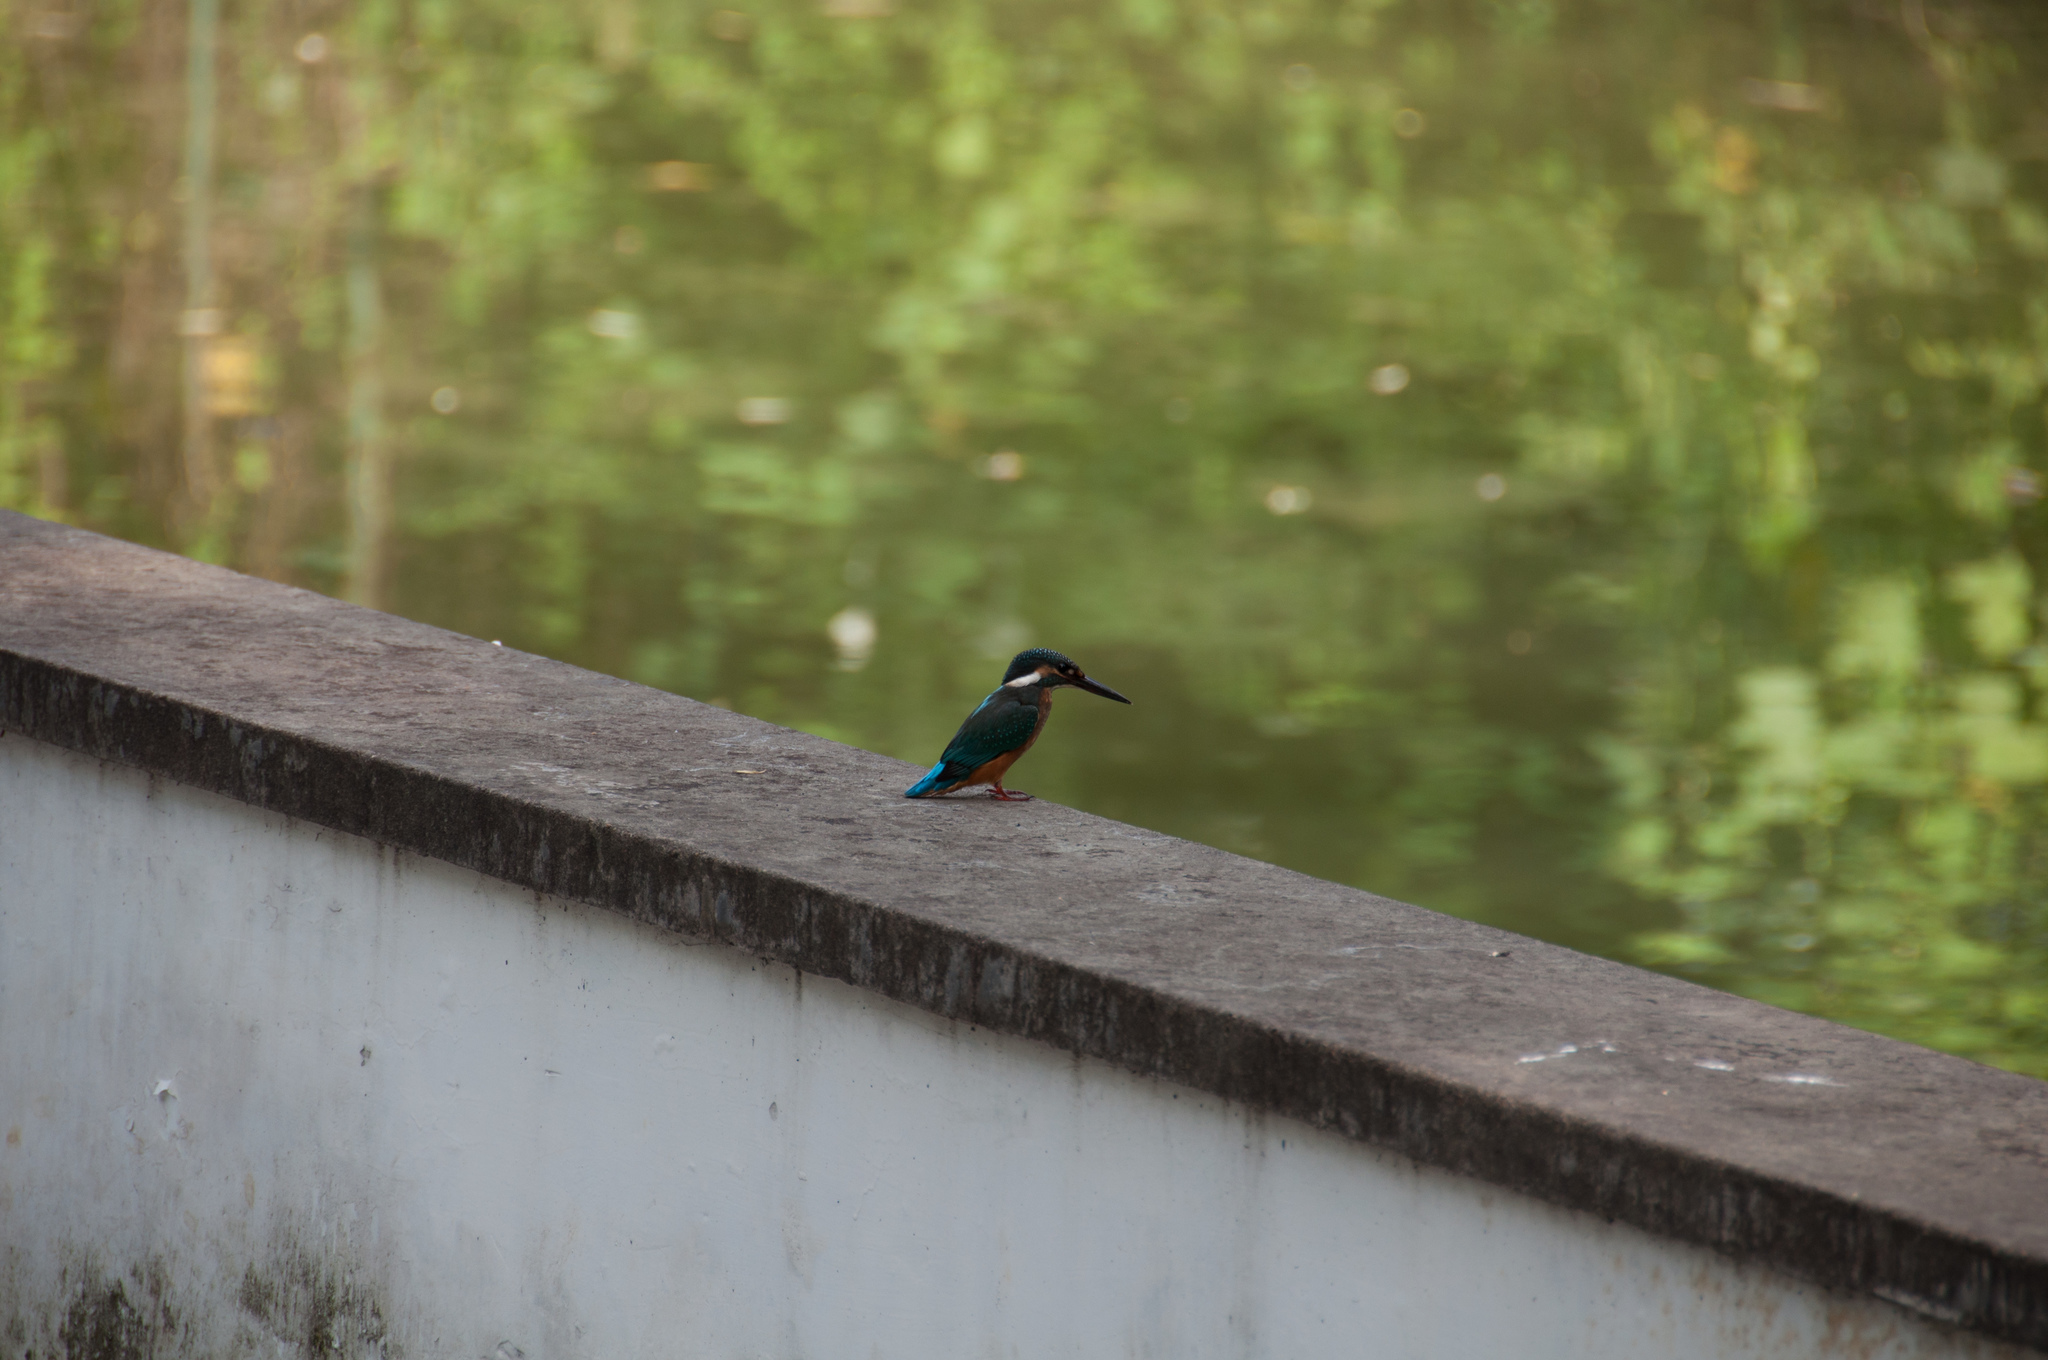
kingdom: Animalia
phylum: Chordata
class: Aves
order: Coraciiformes
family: Alcedinidae
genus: Alcedo
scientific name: Alcedo atthis
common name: Common kingfisher
